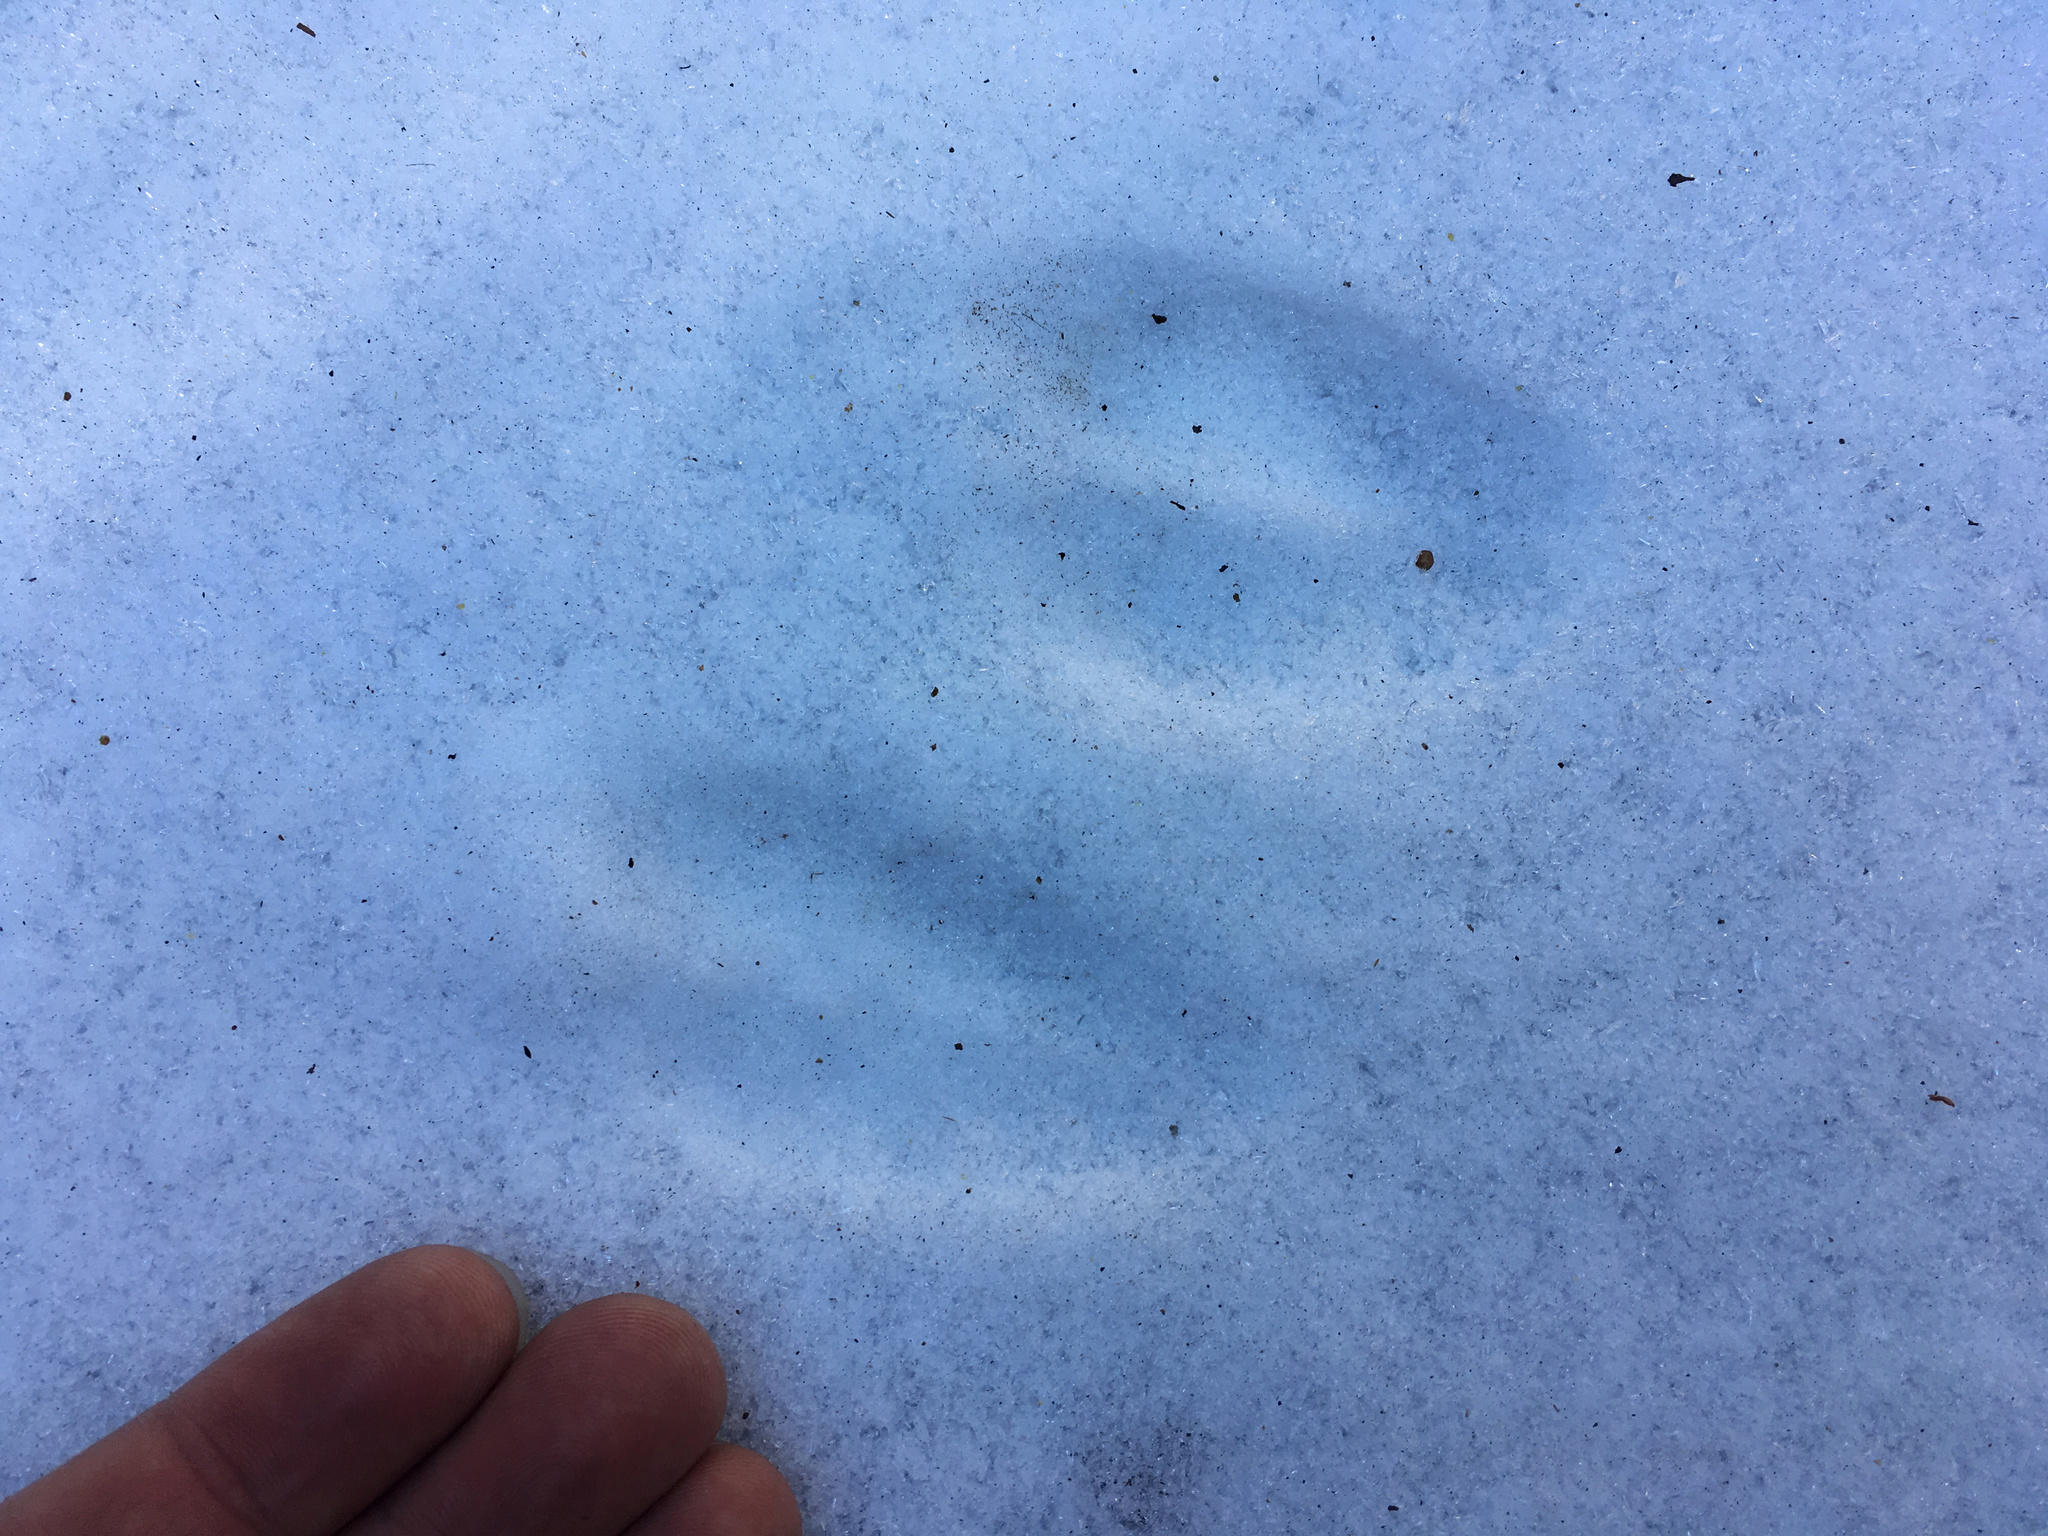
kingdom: Animalia
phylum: Chordata
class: Mammalia
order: Artiodactyla
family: Cervidae
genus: Odocoileus
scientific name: Odocoileus hemionus
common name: Mule deer
